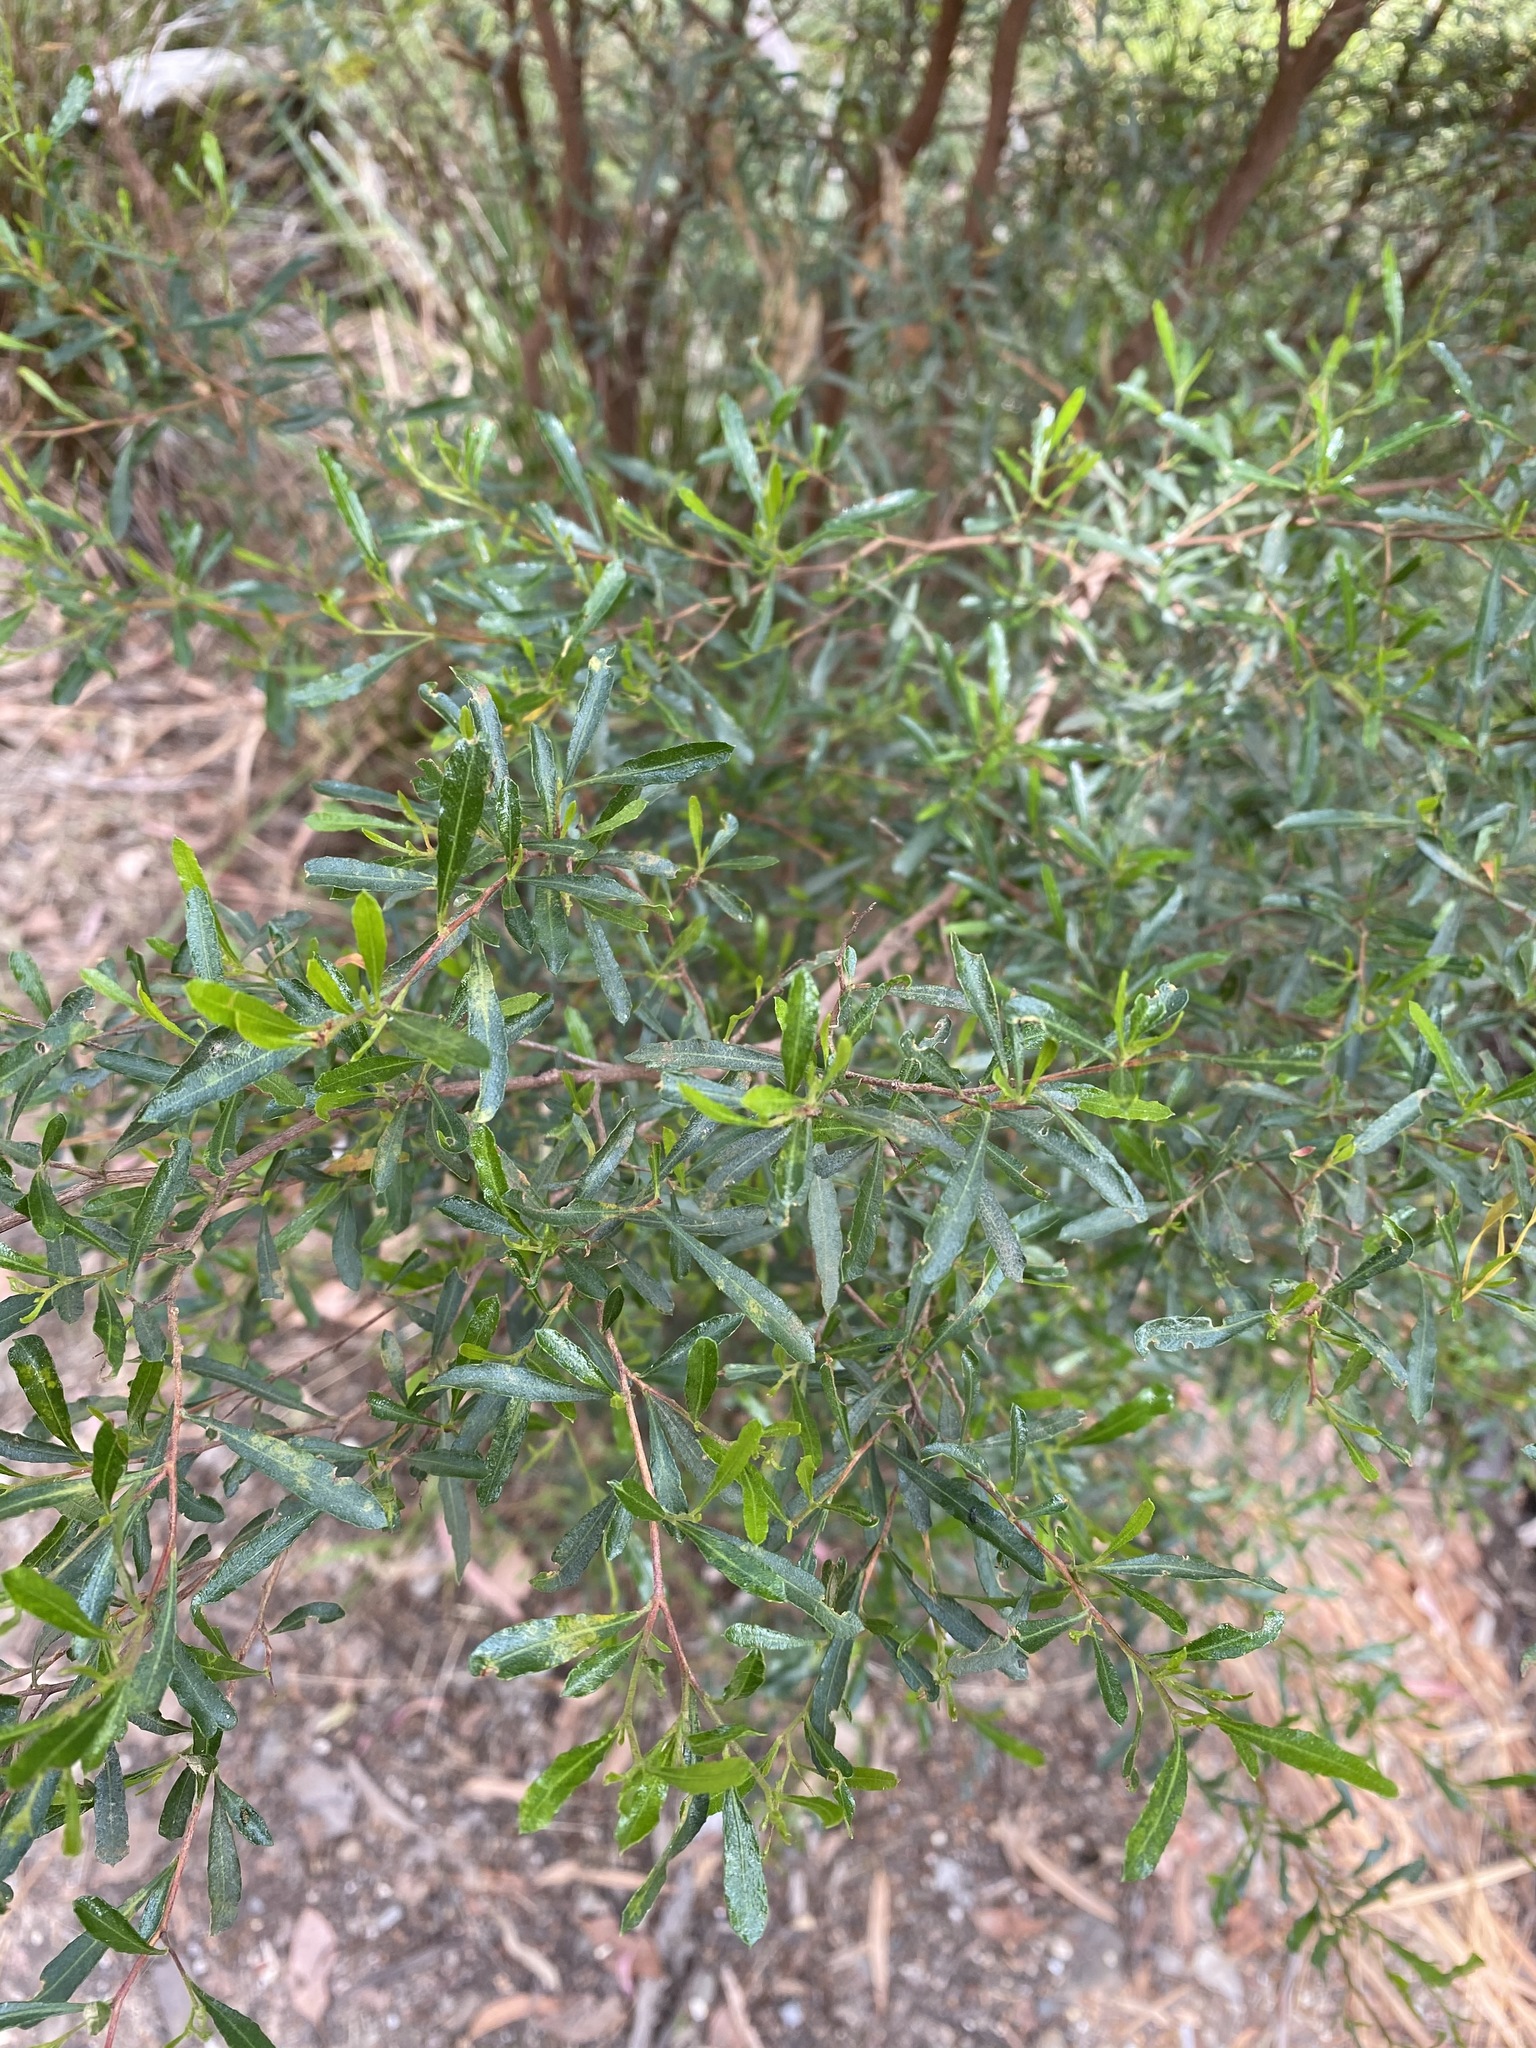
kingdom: Plantae
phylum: Tracheophyta
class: Magnoliopsida
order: Sapindales
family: Sapindaceae
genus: Dodonaea
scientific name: Dodonaea viscosa
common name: Hopbush
